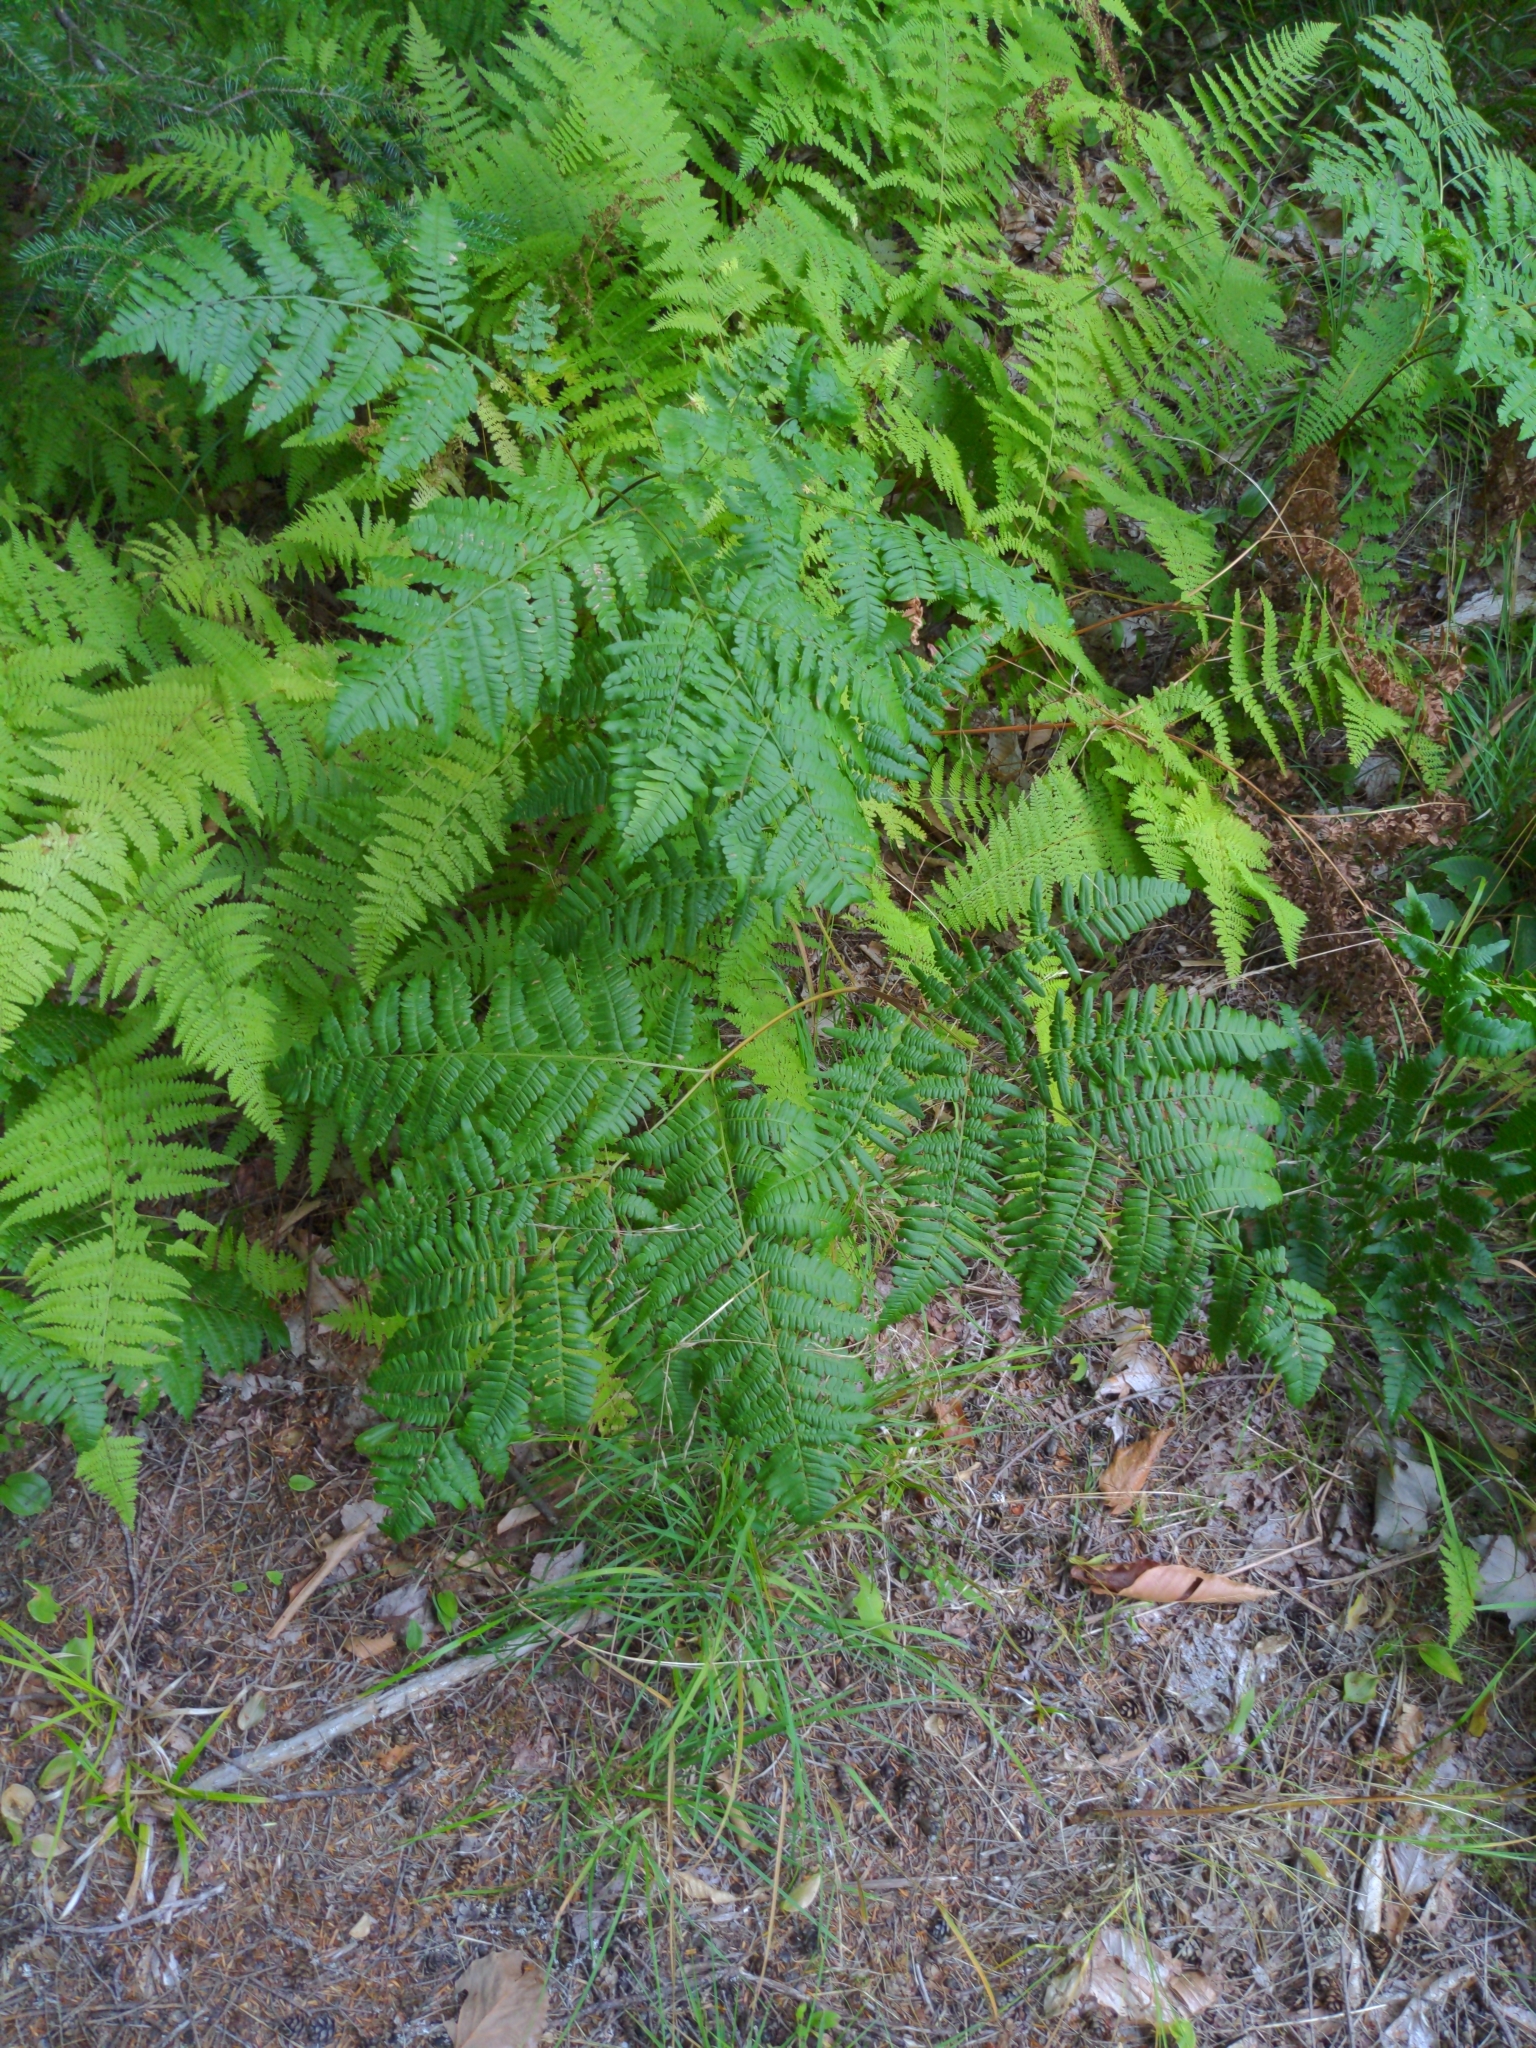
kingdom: Plantae
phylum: Tracheophyta
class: Polypodiopsida
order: Polypodiales
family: Dennstaedtiaceae
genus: Pteridium
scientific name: Pteridium aquilinum
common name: Bracken
